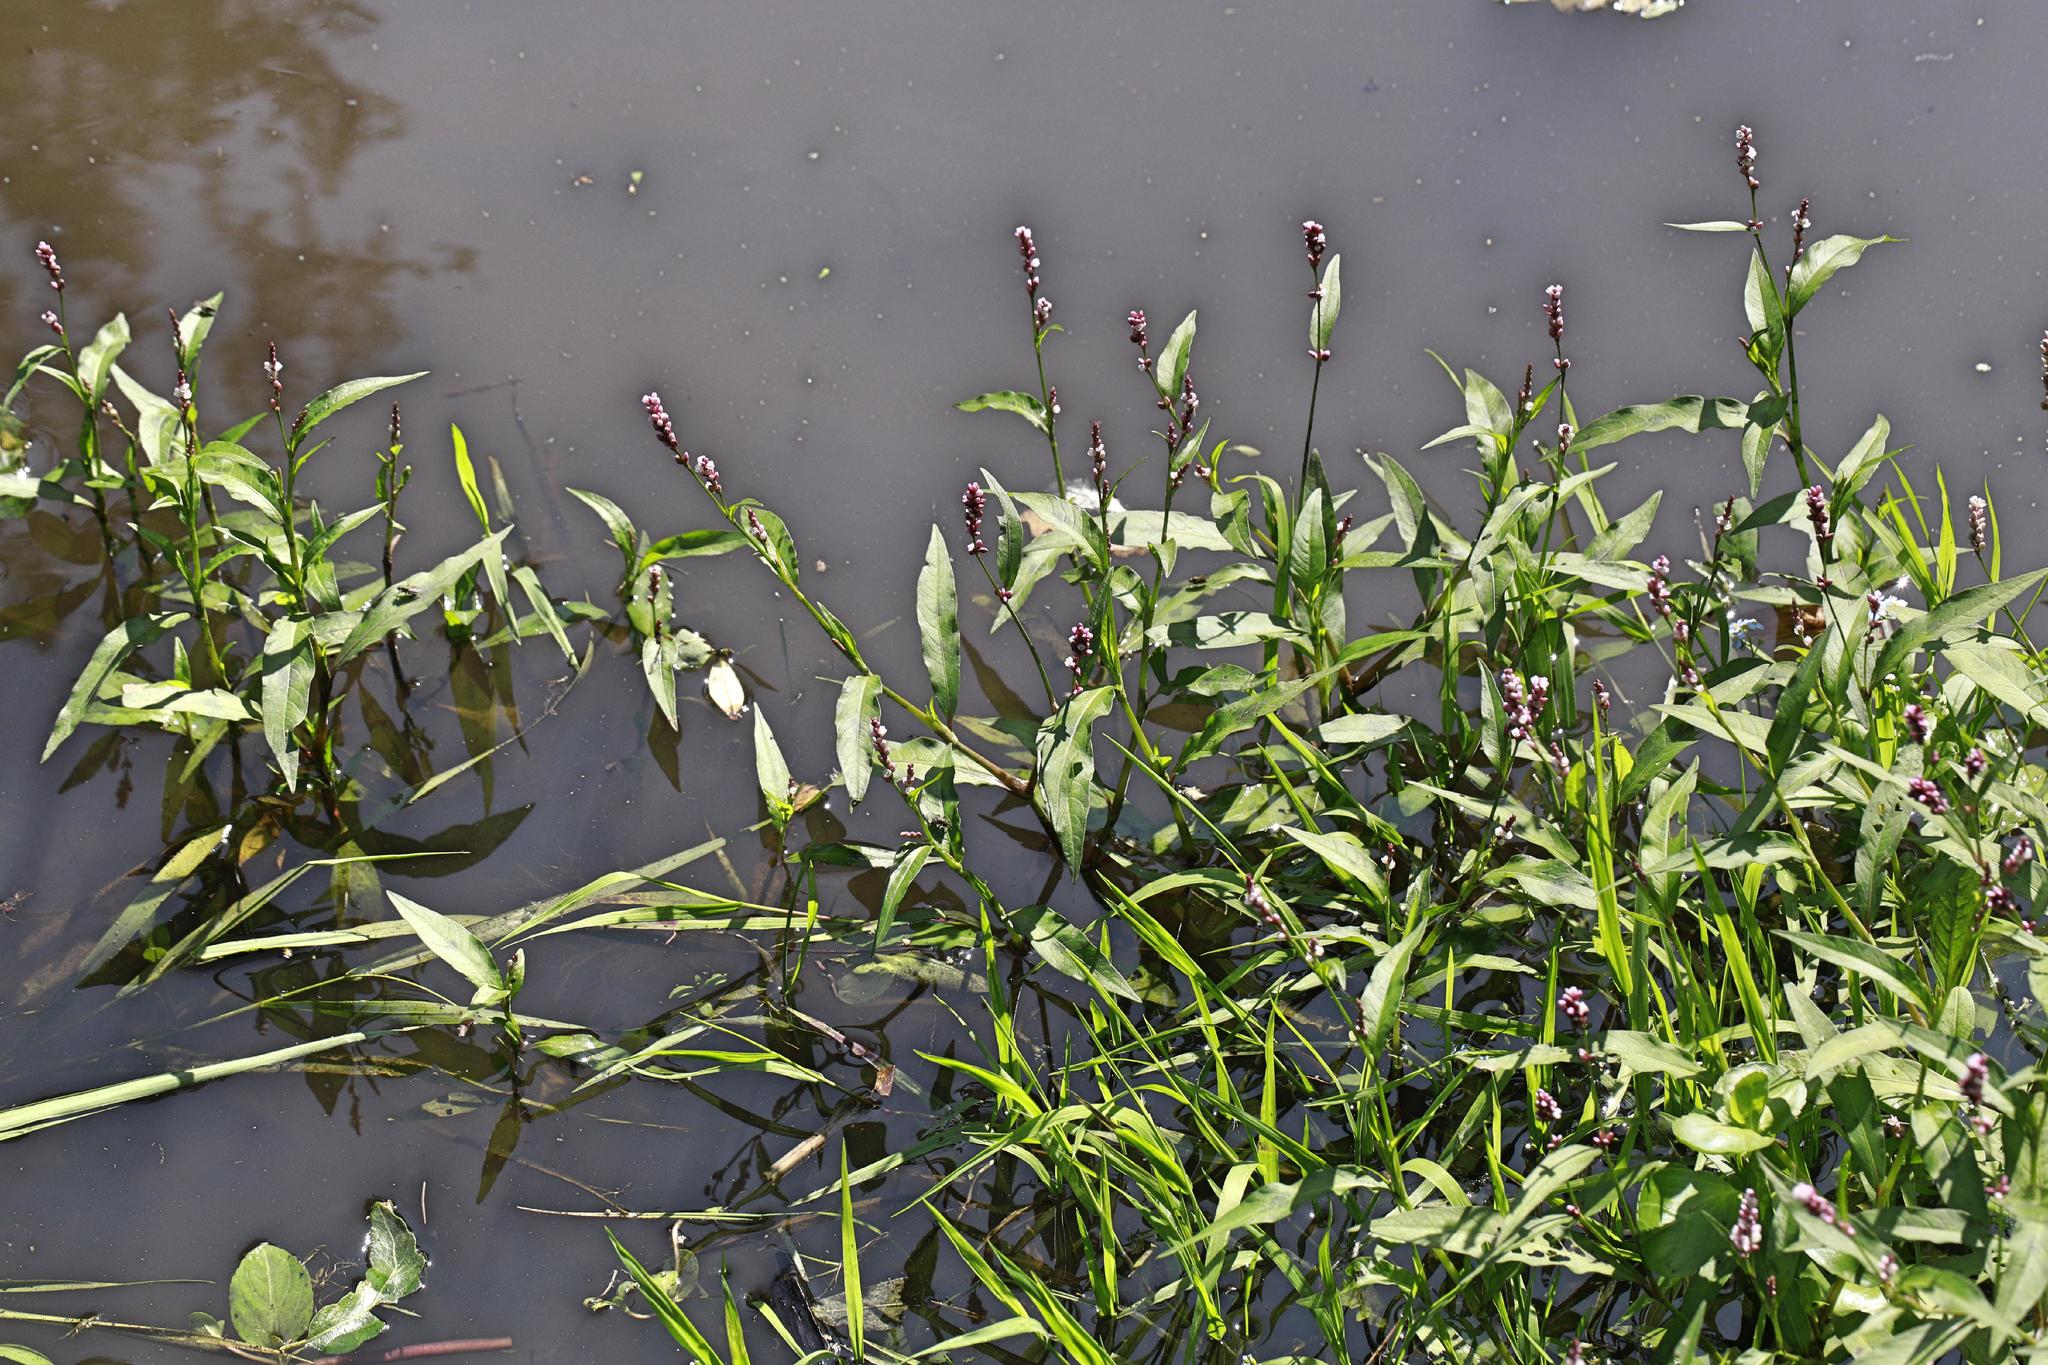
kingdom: Plantae
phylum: Tracheophyta
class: Magnoliopsida
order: Caryophyllales
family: Polygonaceae
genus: Persicaria
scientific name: Persicaria amphibia
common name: Amphibious bistort
